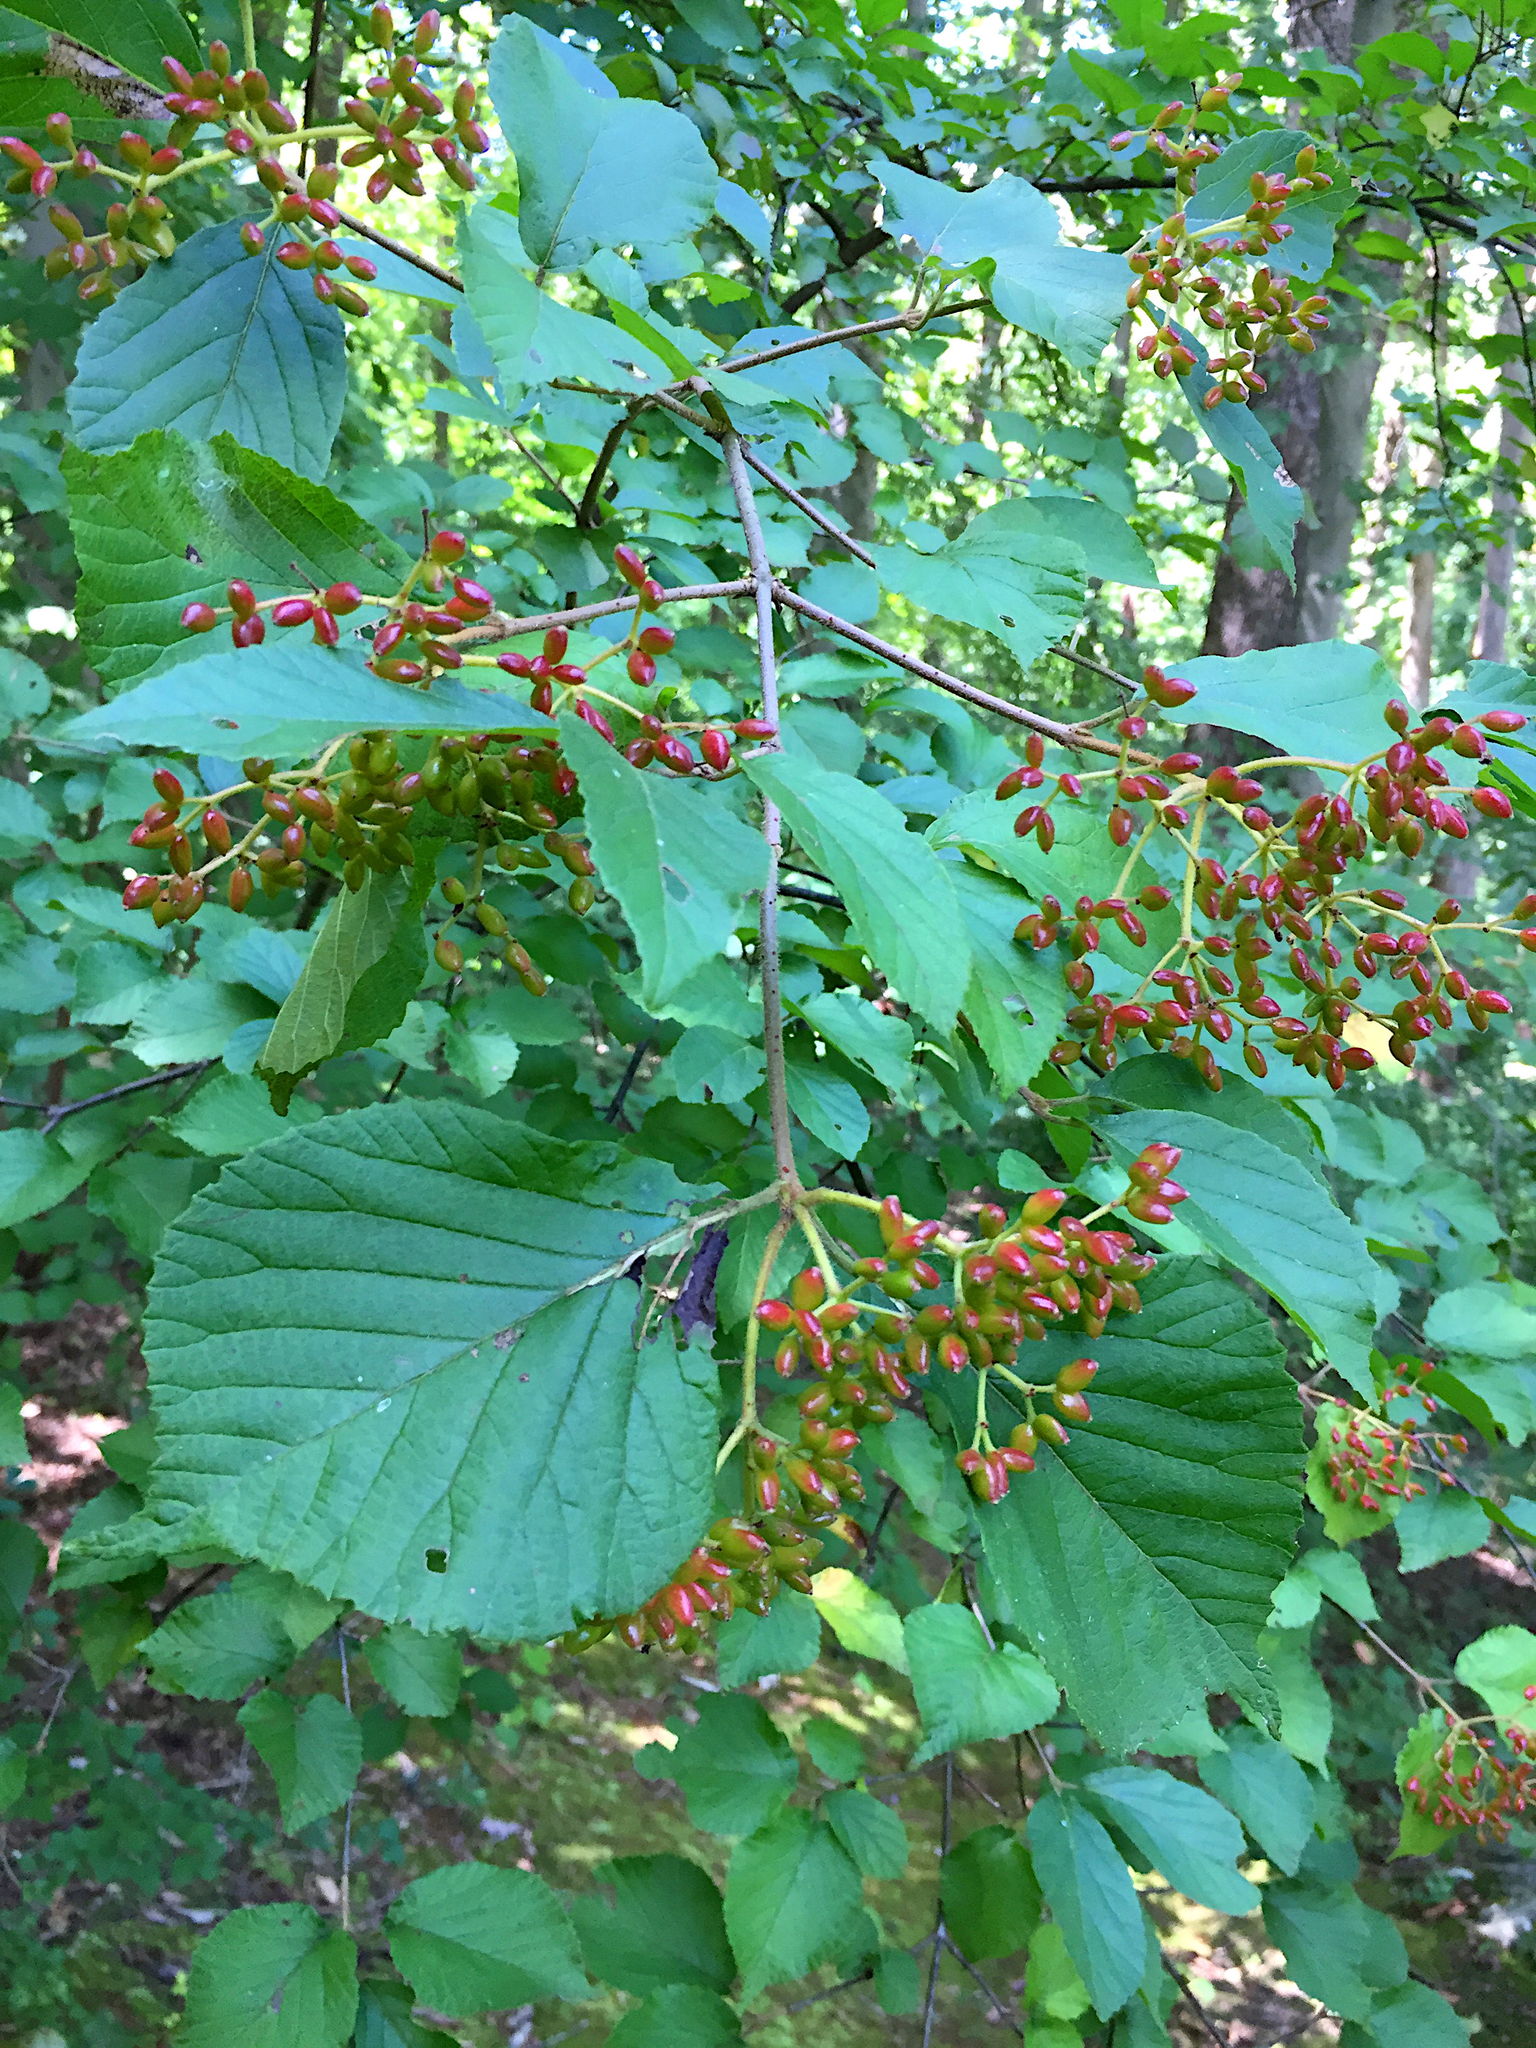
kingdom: Plantae
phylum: Tracheophyta
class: Magnoliopsida
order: Dipsacales
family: Viburnaceae
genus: Viburnum
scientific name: Viburnum dilatatum
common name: Linden arrowwood
